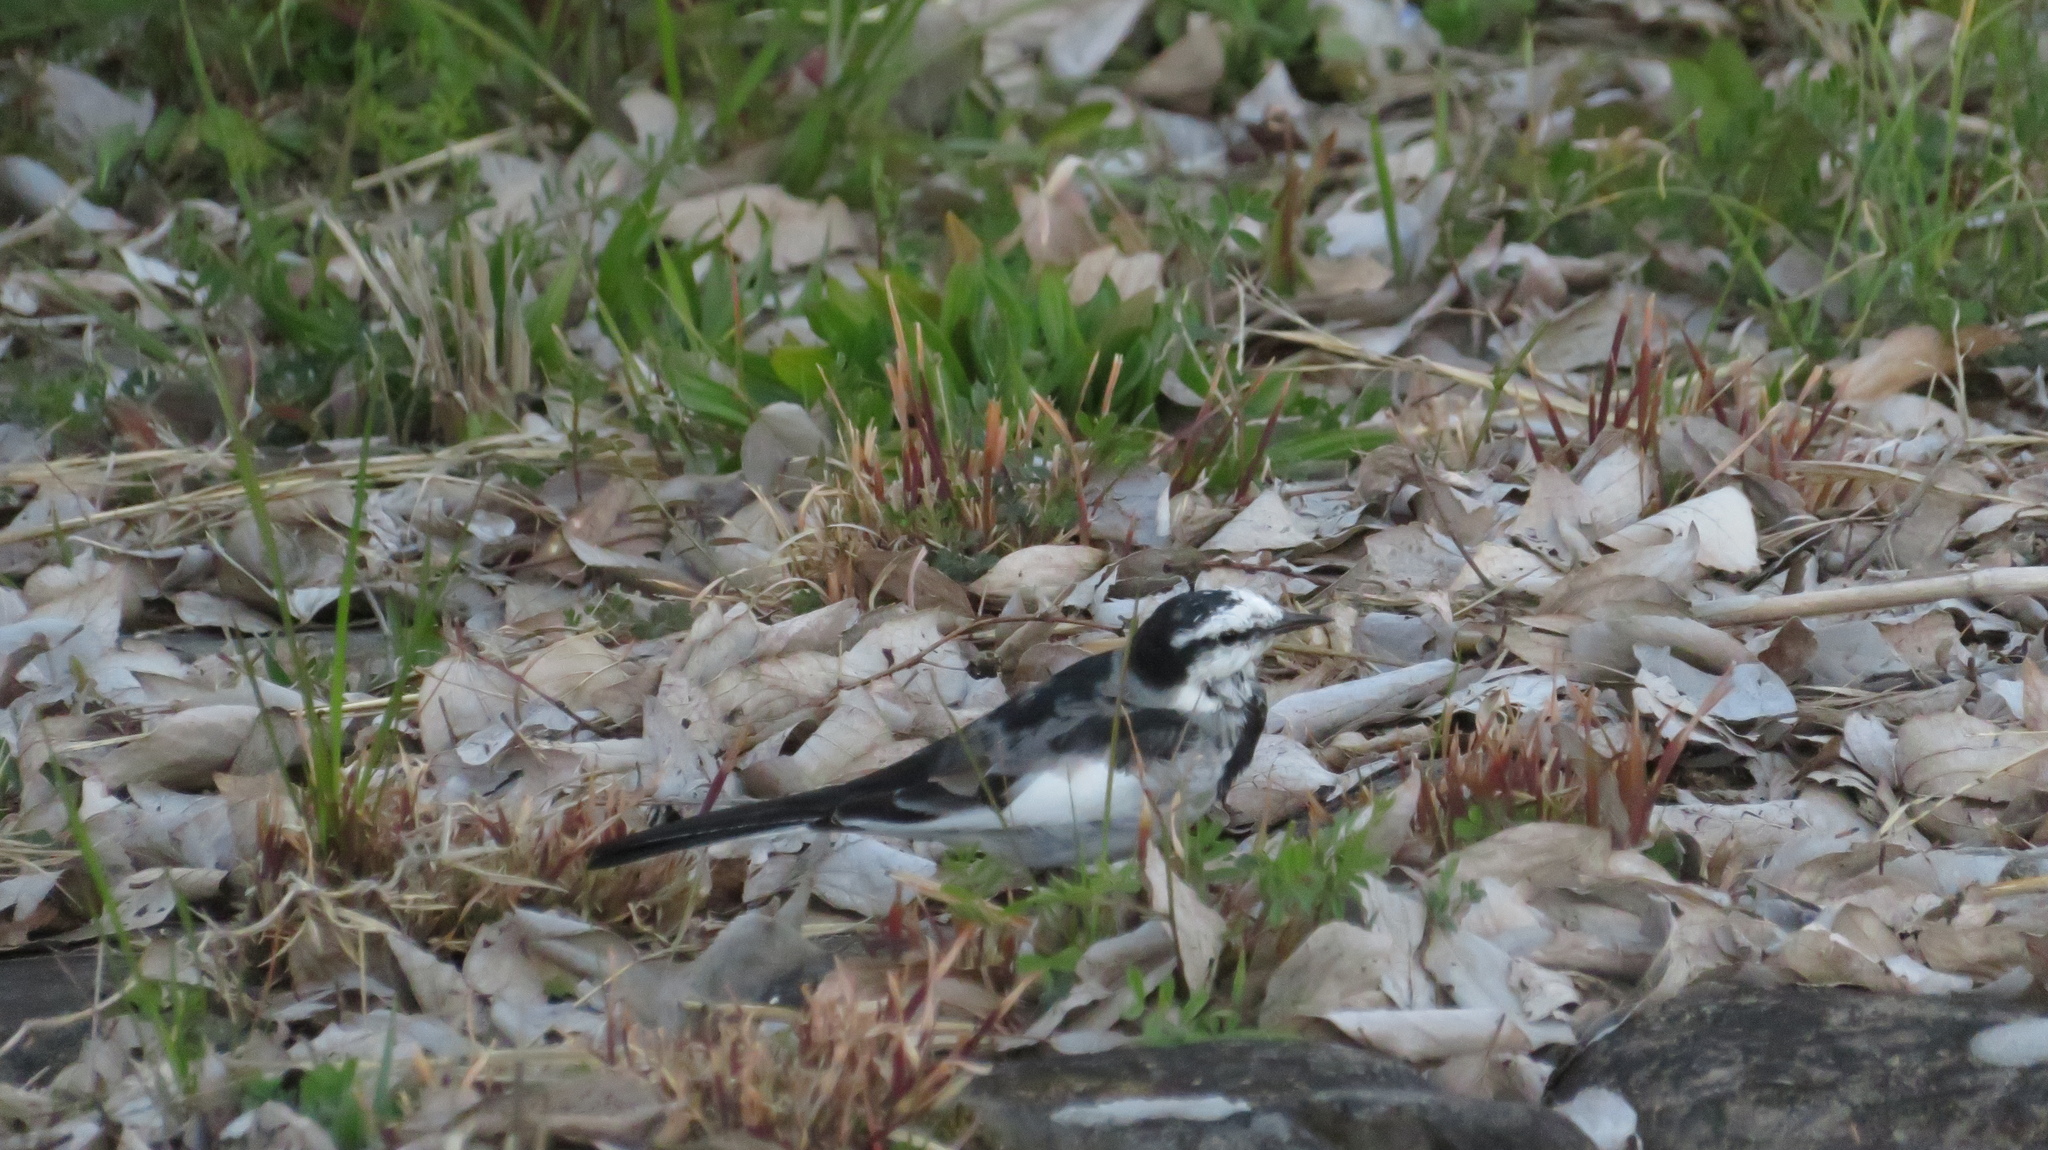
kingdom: Animalia
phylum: Chordata
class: Aves
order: Passeriformes
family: Motacillidae
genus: Motacilla
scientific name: Motacilla alba
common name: White wagtail
